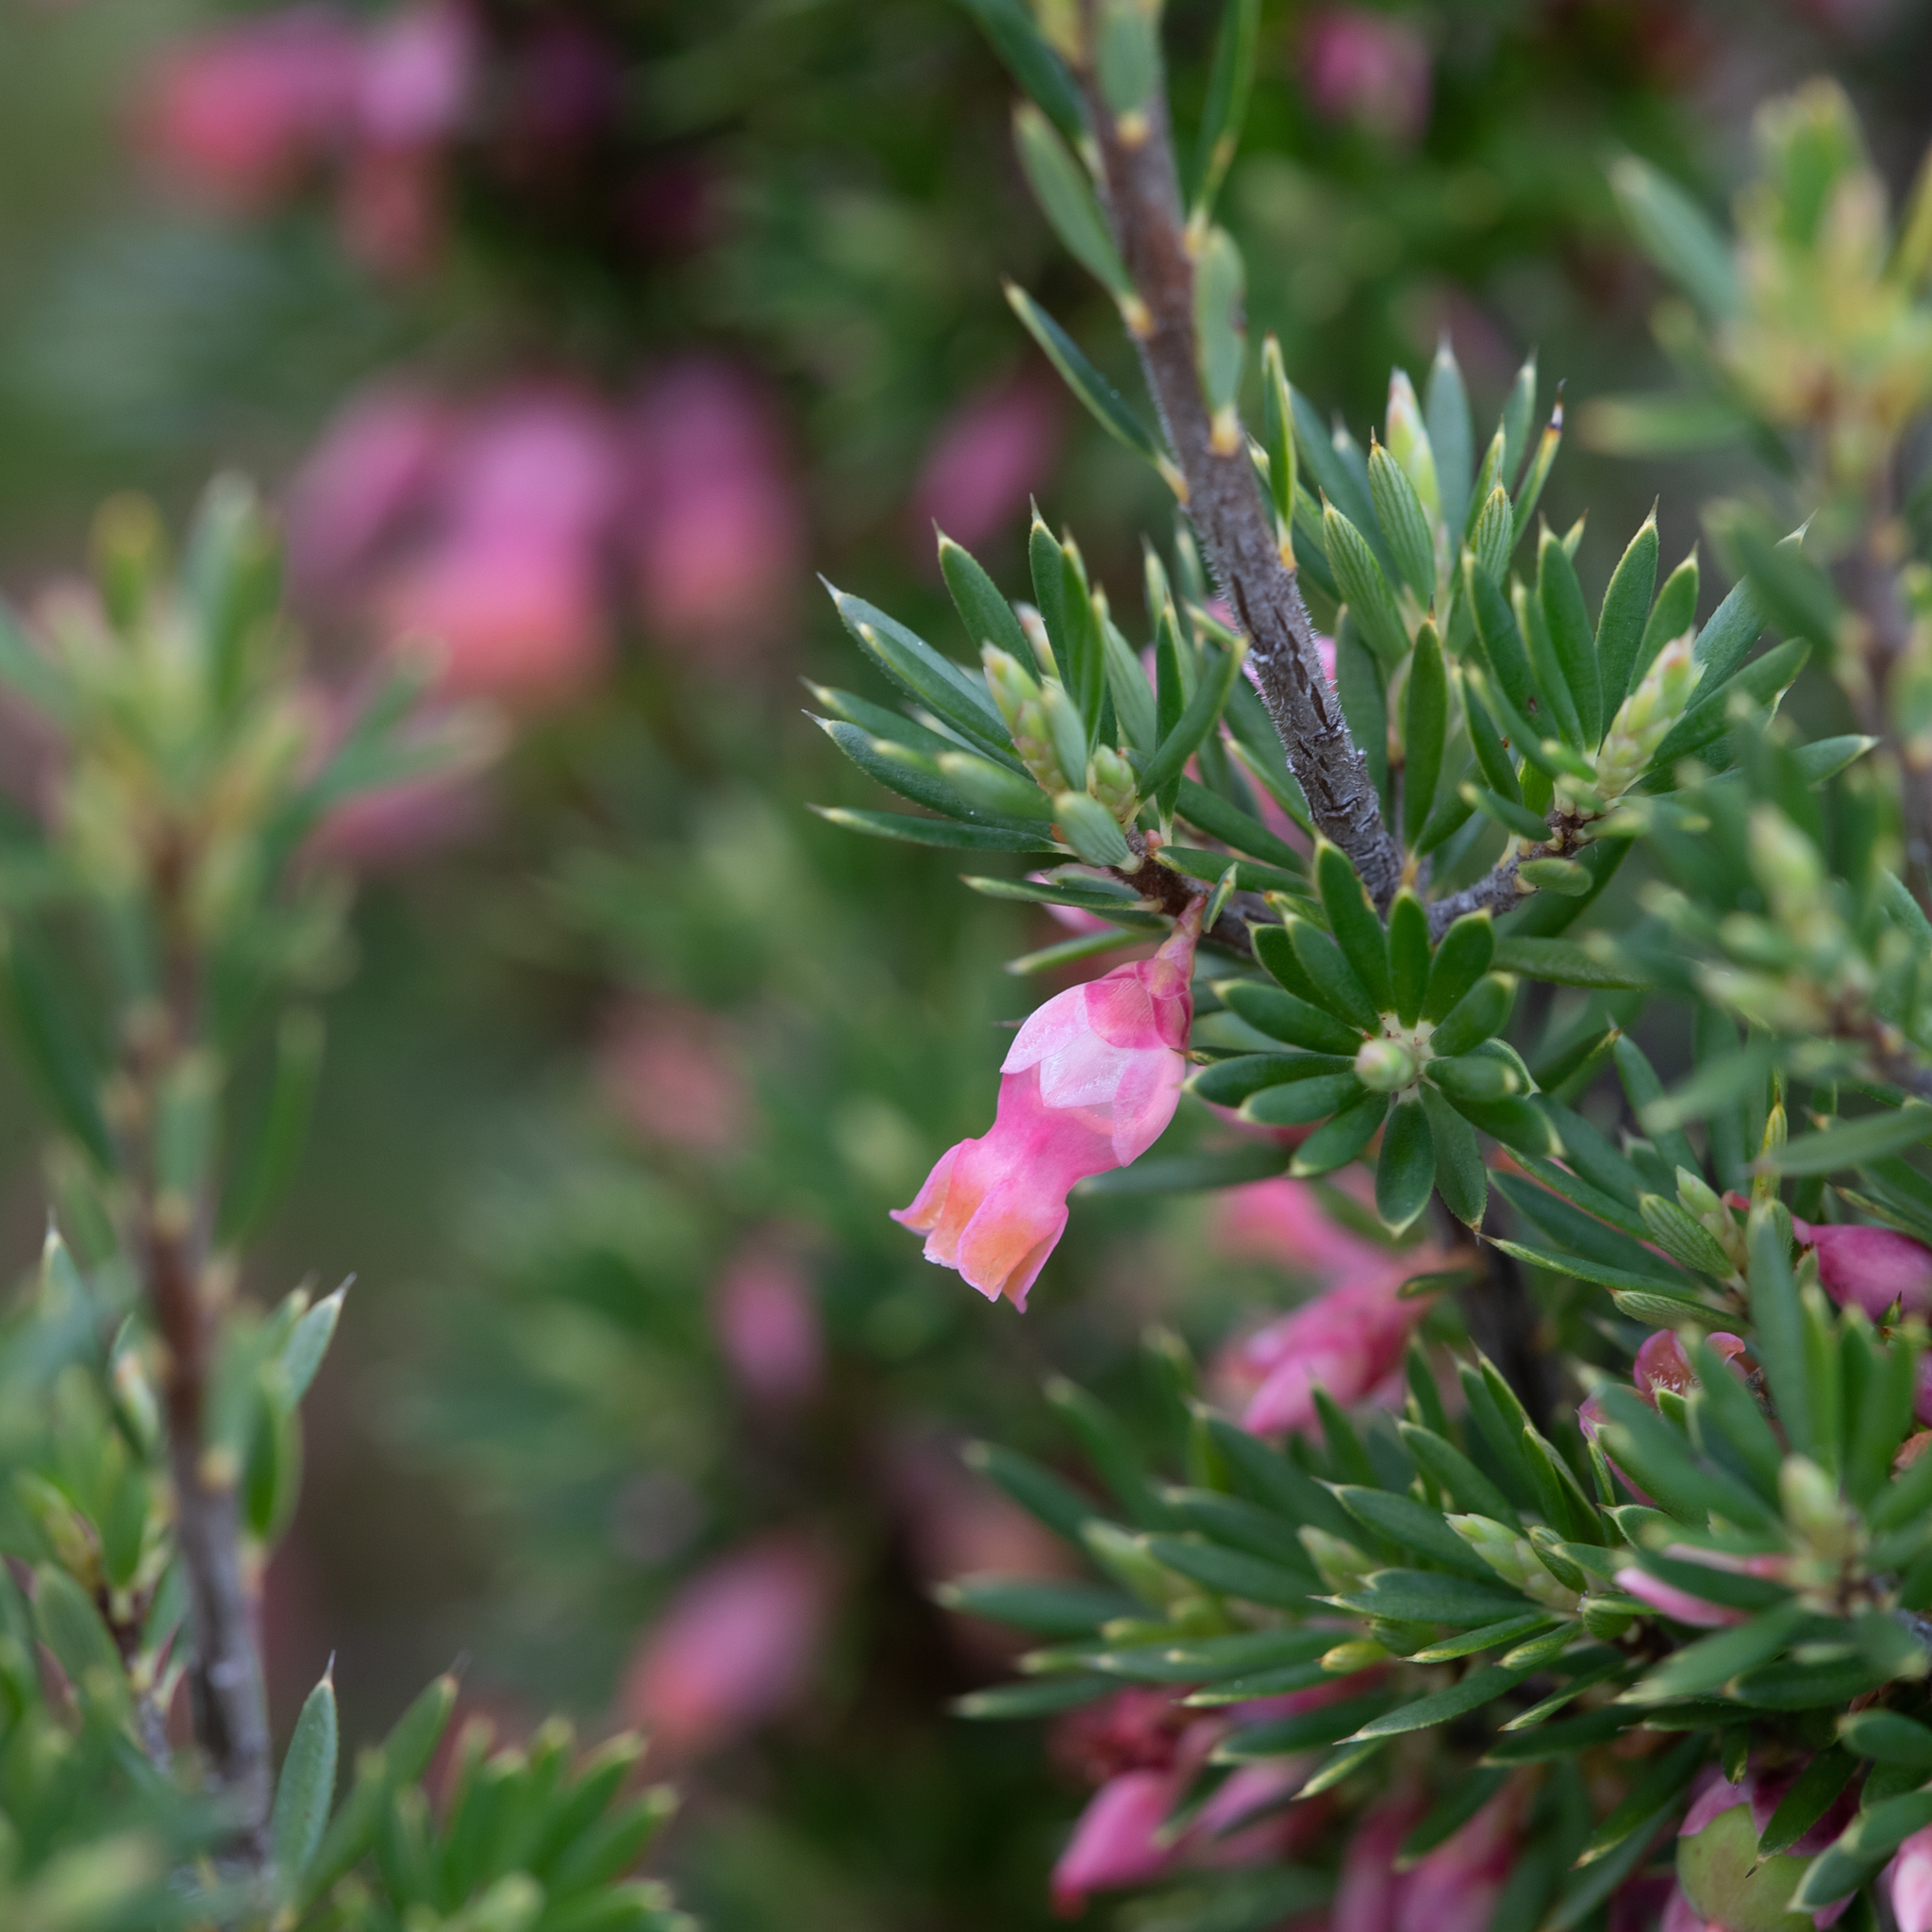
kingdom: Plantae
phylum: Tracheophyta
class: Magnoliopsida
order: Ericales
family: Ericaceae
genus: Brachyloma
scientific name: Brachyloma ericoides
